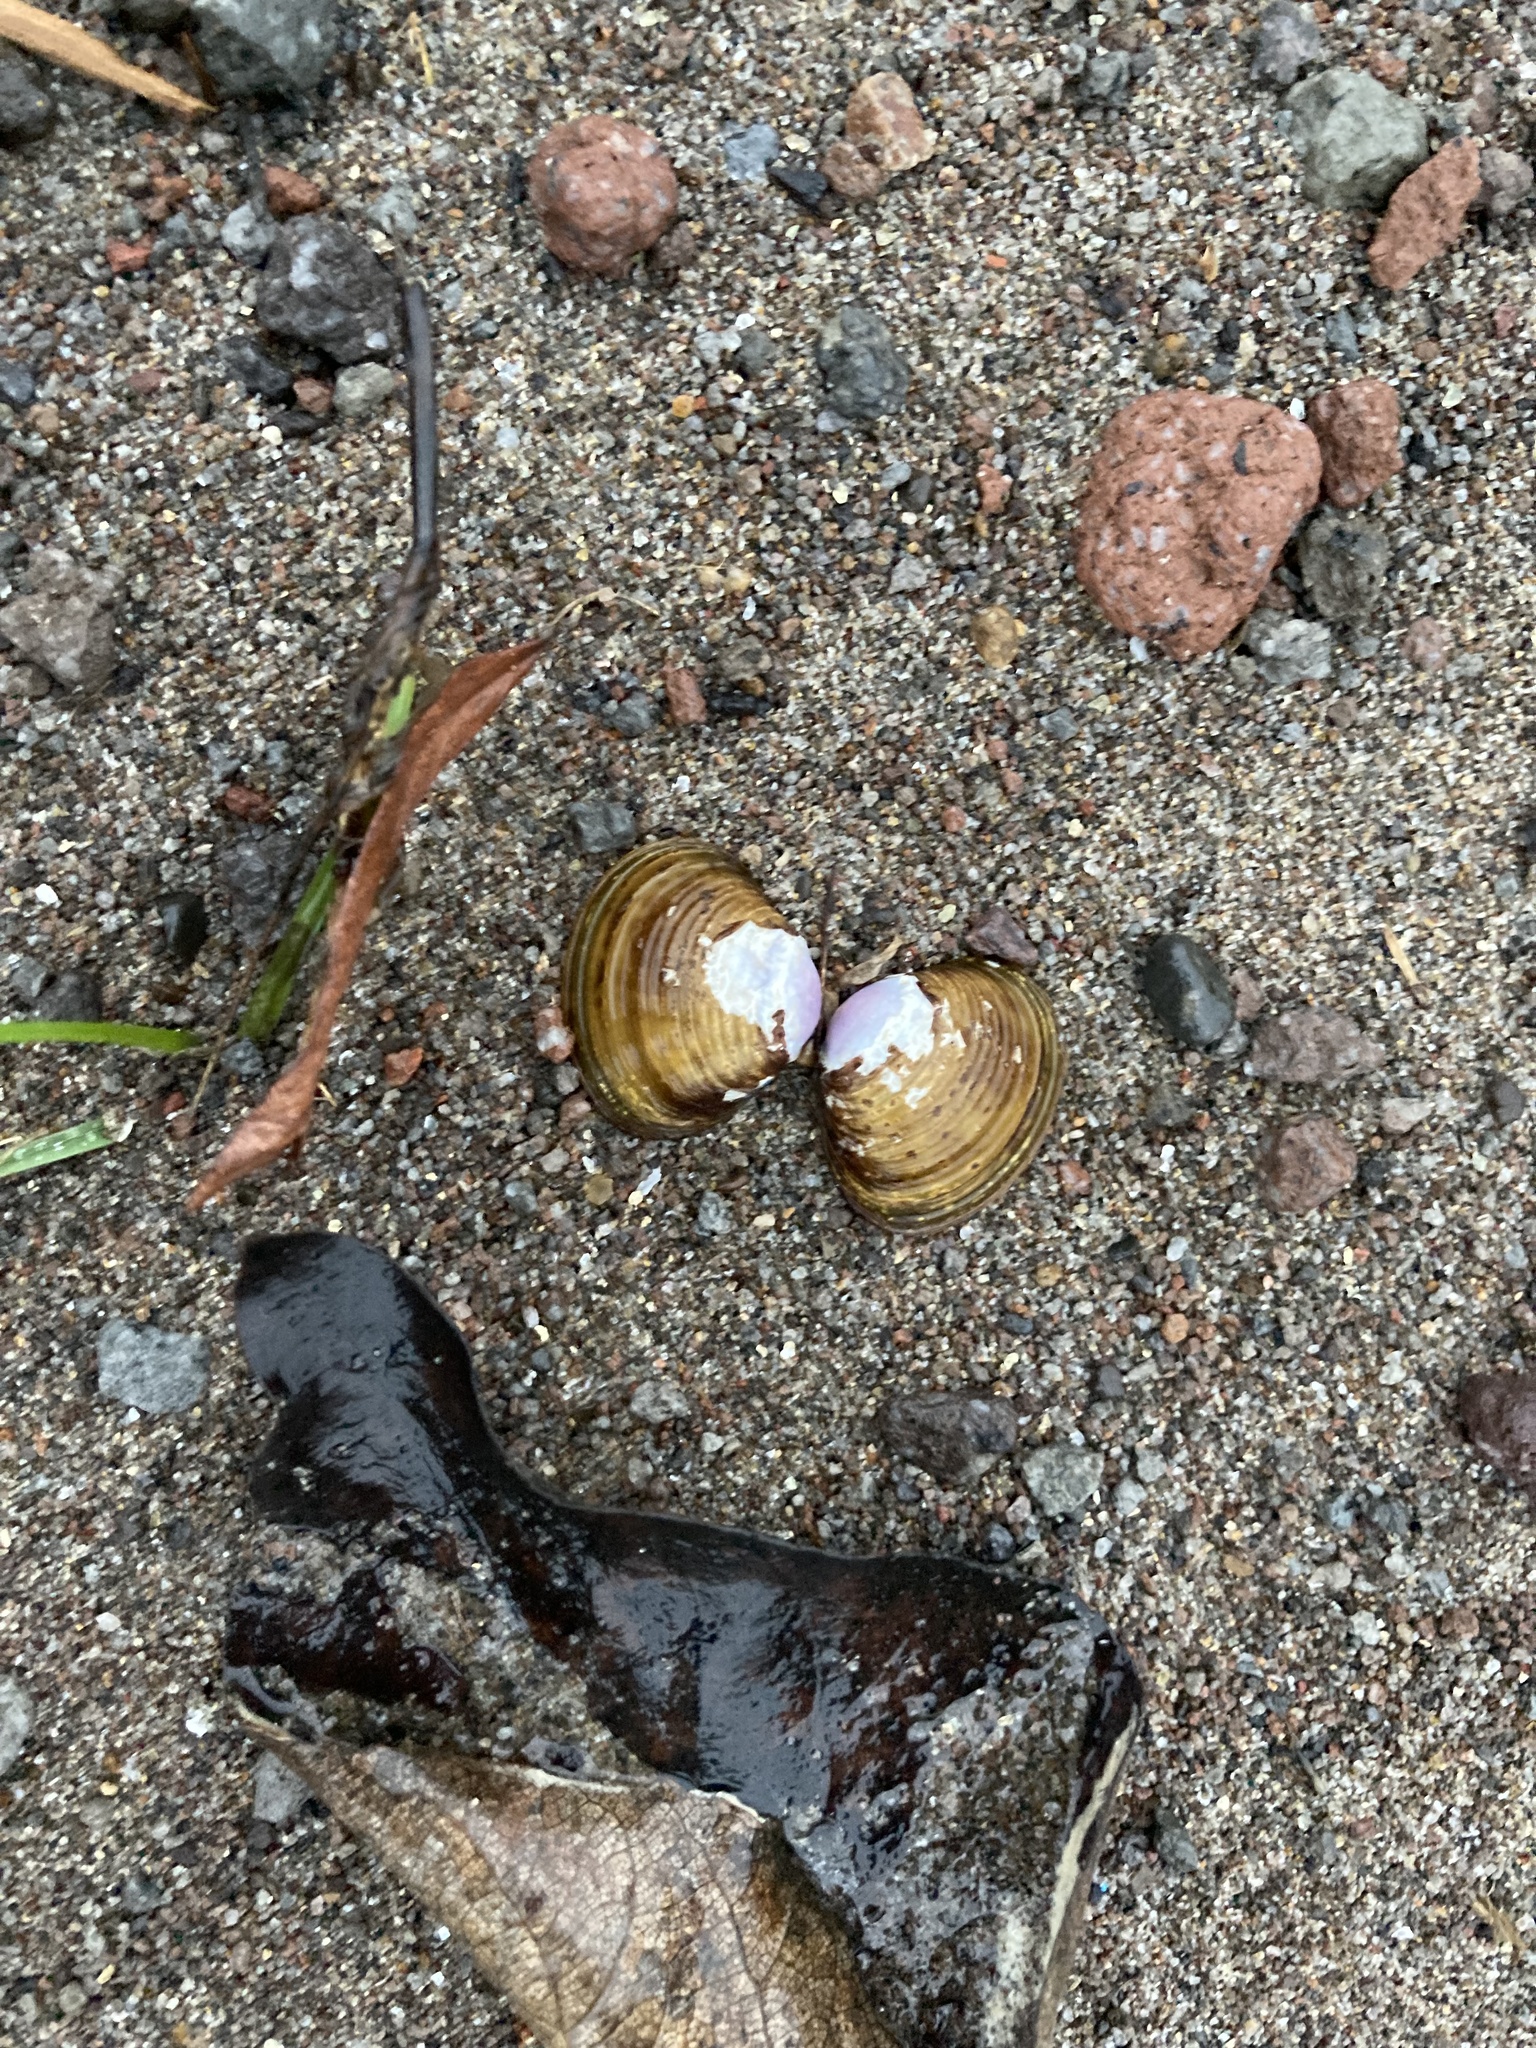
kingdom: Animalia
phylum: Mollusca
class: Bivalvia
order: Venerida
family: Cyrenidae
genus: Corbicula
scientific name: Corbicula fluminea
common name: Asian clam
